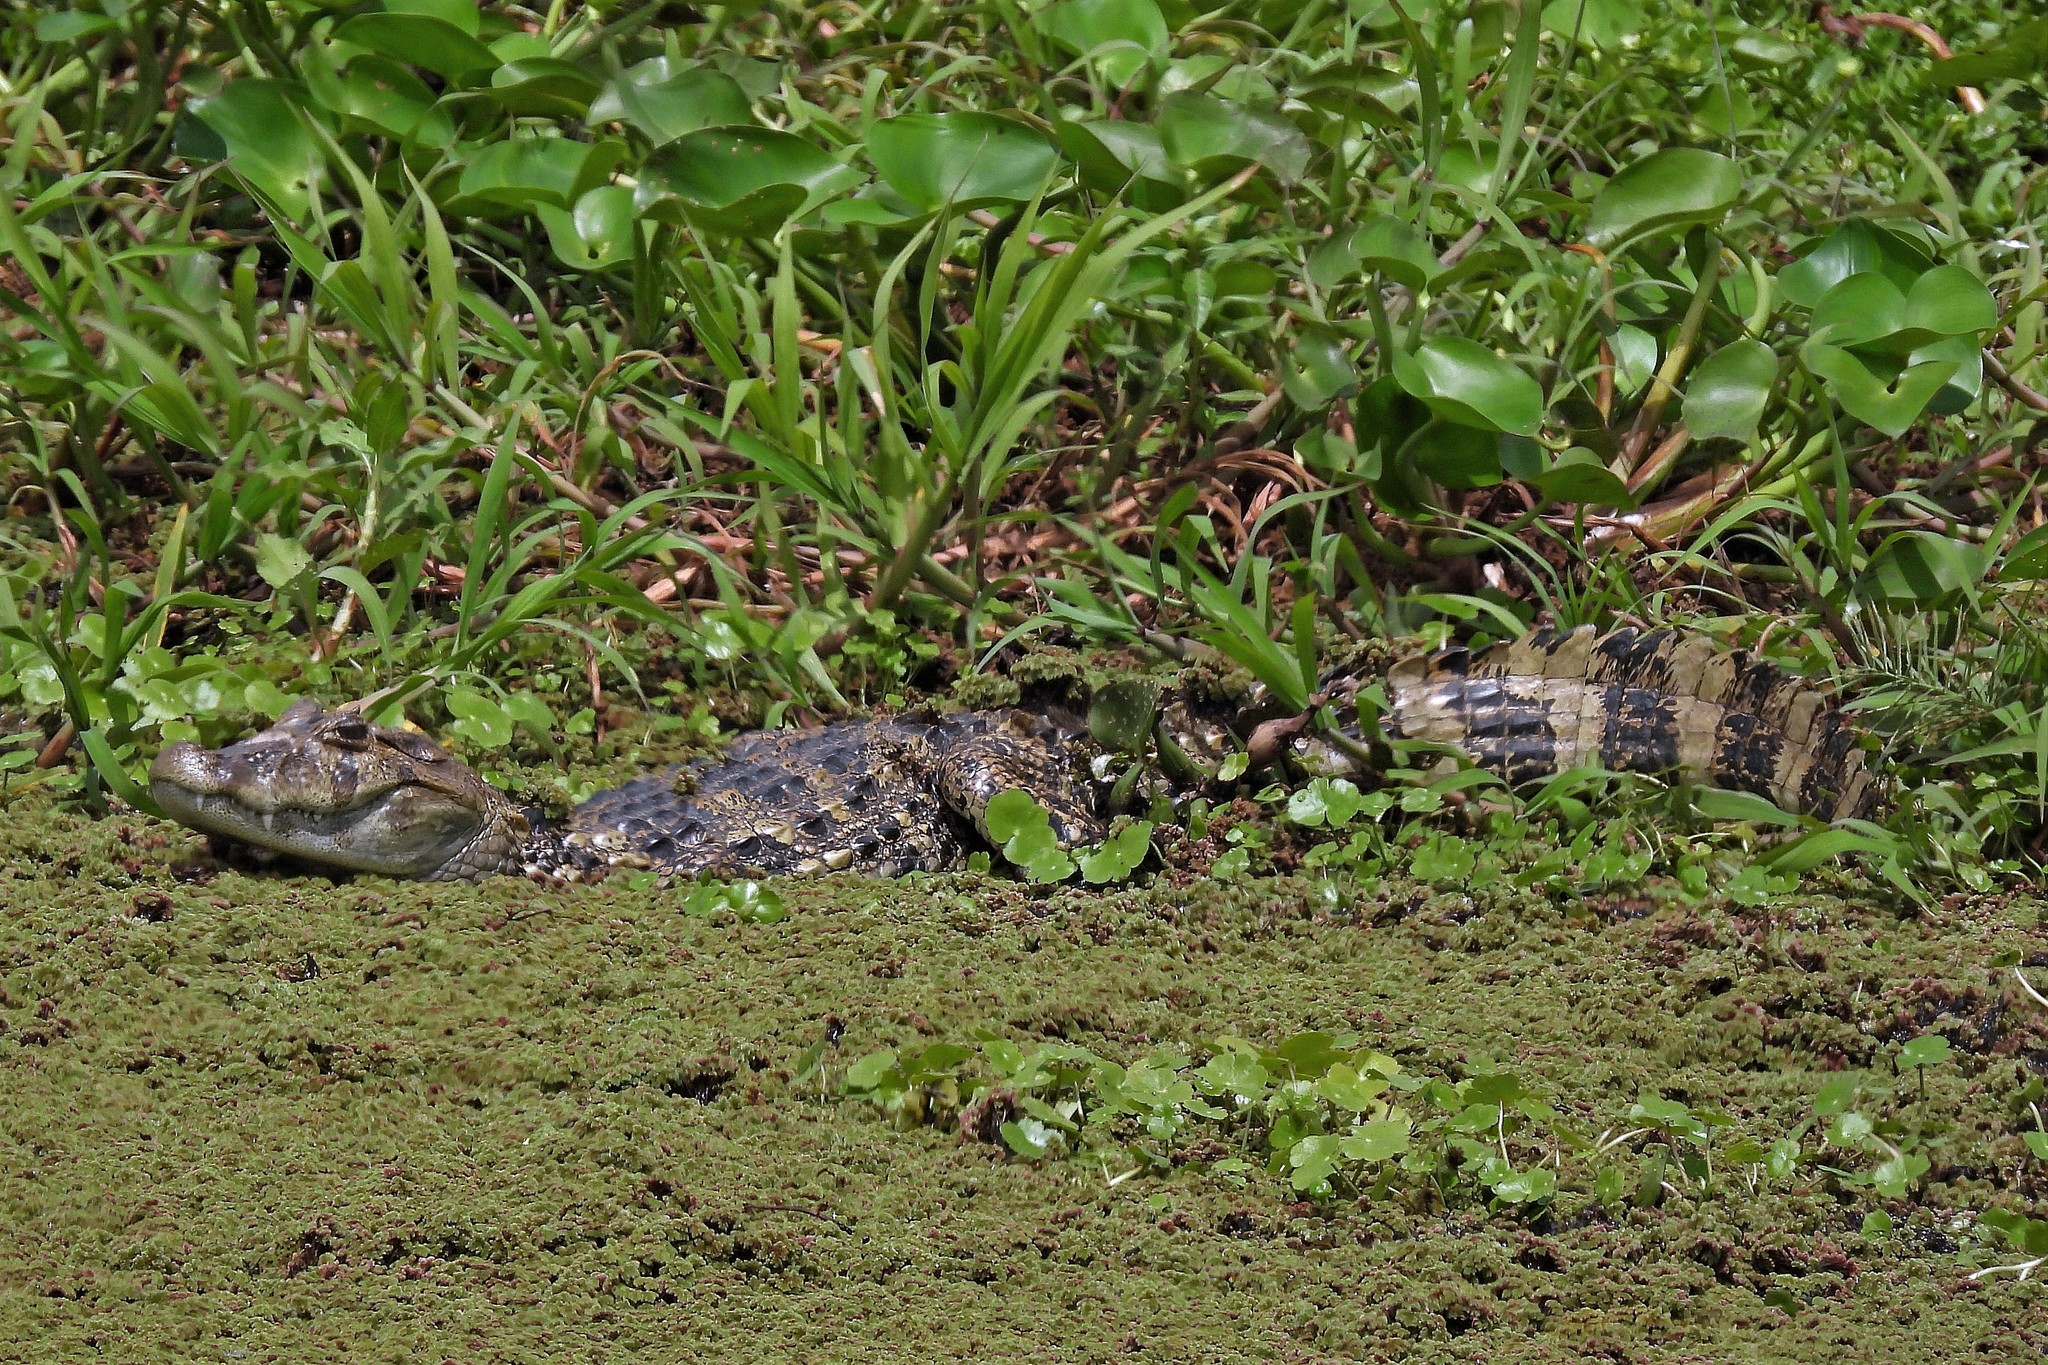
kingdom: Animalia
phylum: Chordata
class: Crocodylia
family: Alligatoridae
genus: Caiman
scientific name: Caiman latirostris
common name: Broad-snouted caiman
